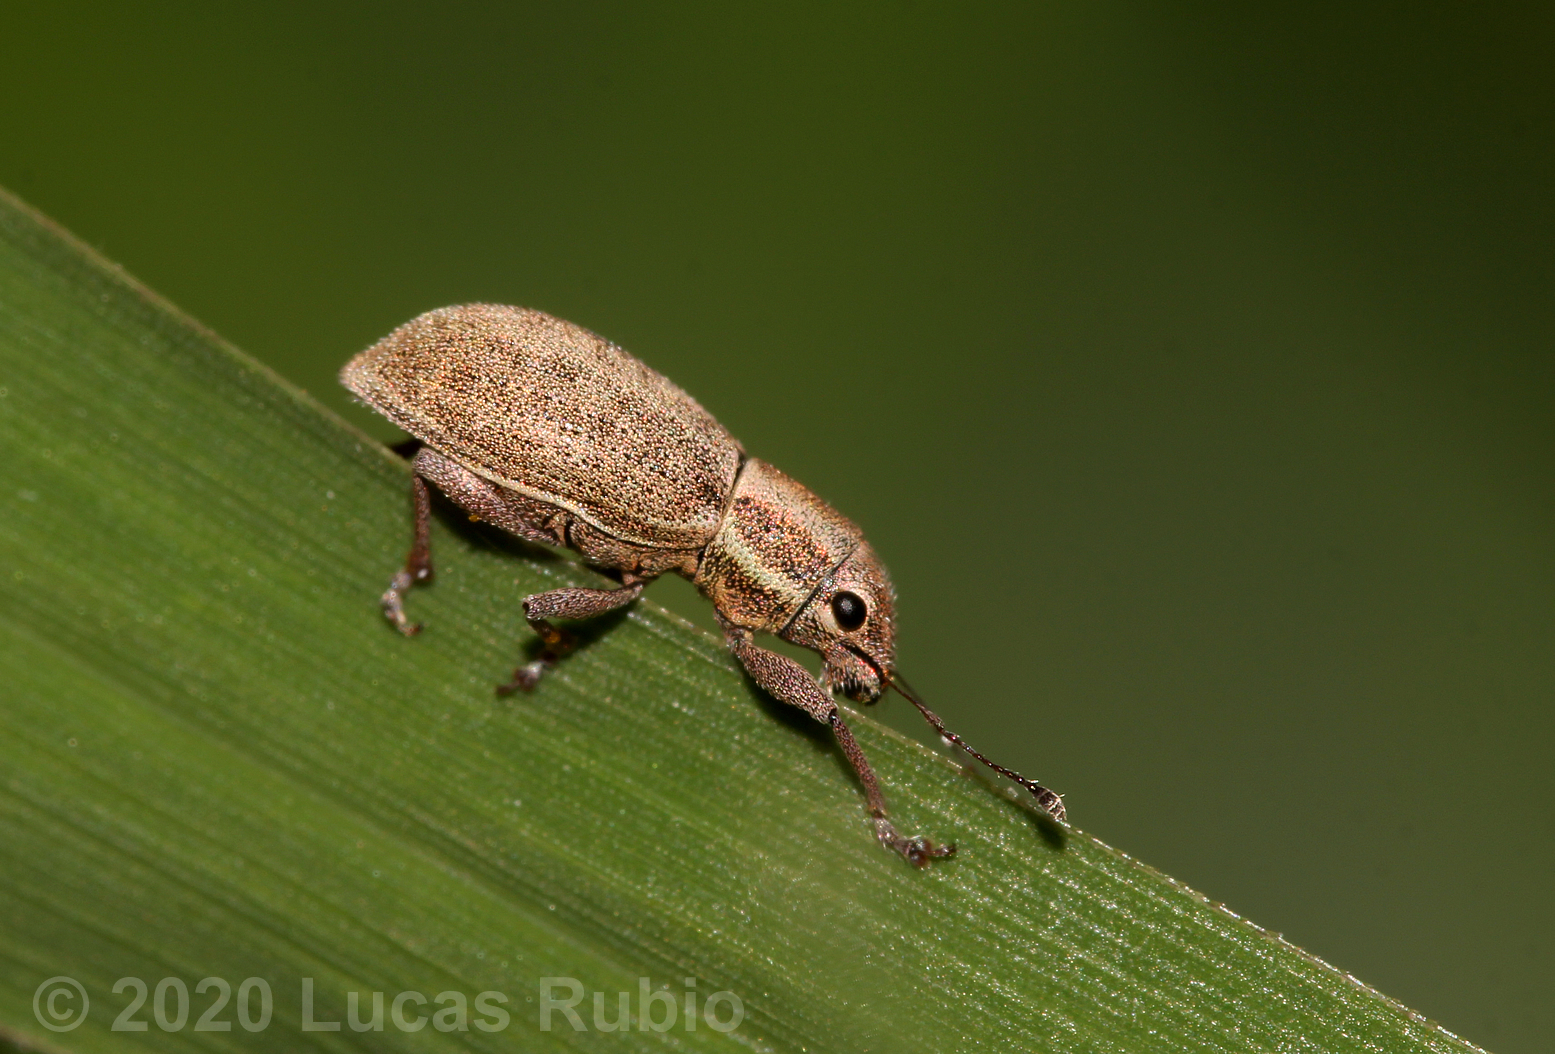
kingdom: Animalia
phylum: Arthropoda
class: Insecta
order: Coleoptera
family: Curculionidae
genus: Aramigus
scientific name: Aramigus tessellatus
